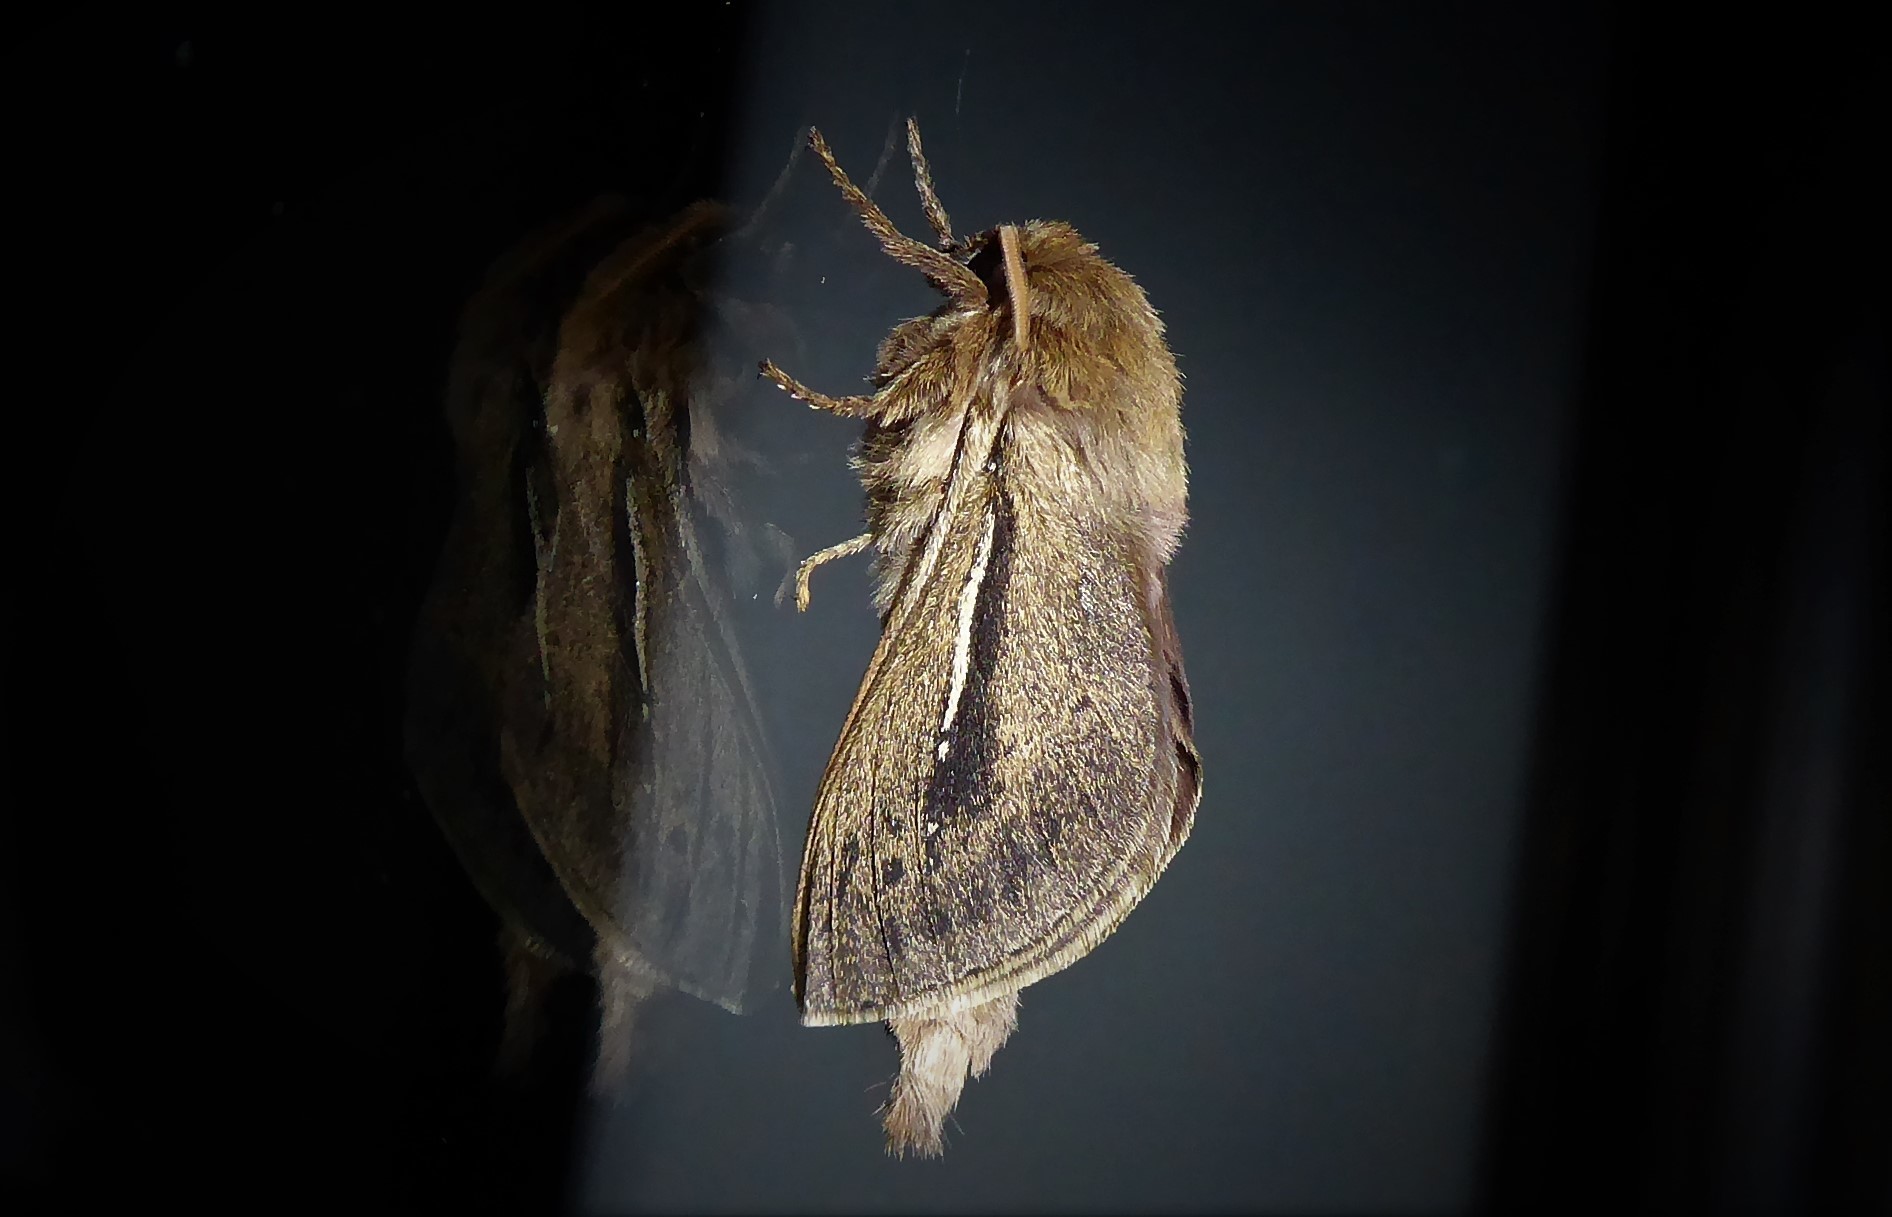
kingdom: Animalia
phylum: Arthropoda
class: Insecta
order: Lepidoptera
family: Hepialidae
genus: Wiseana
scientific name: Wiseana umbraculatus
